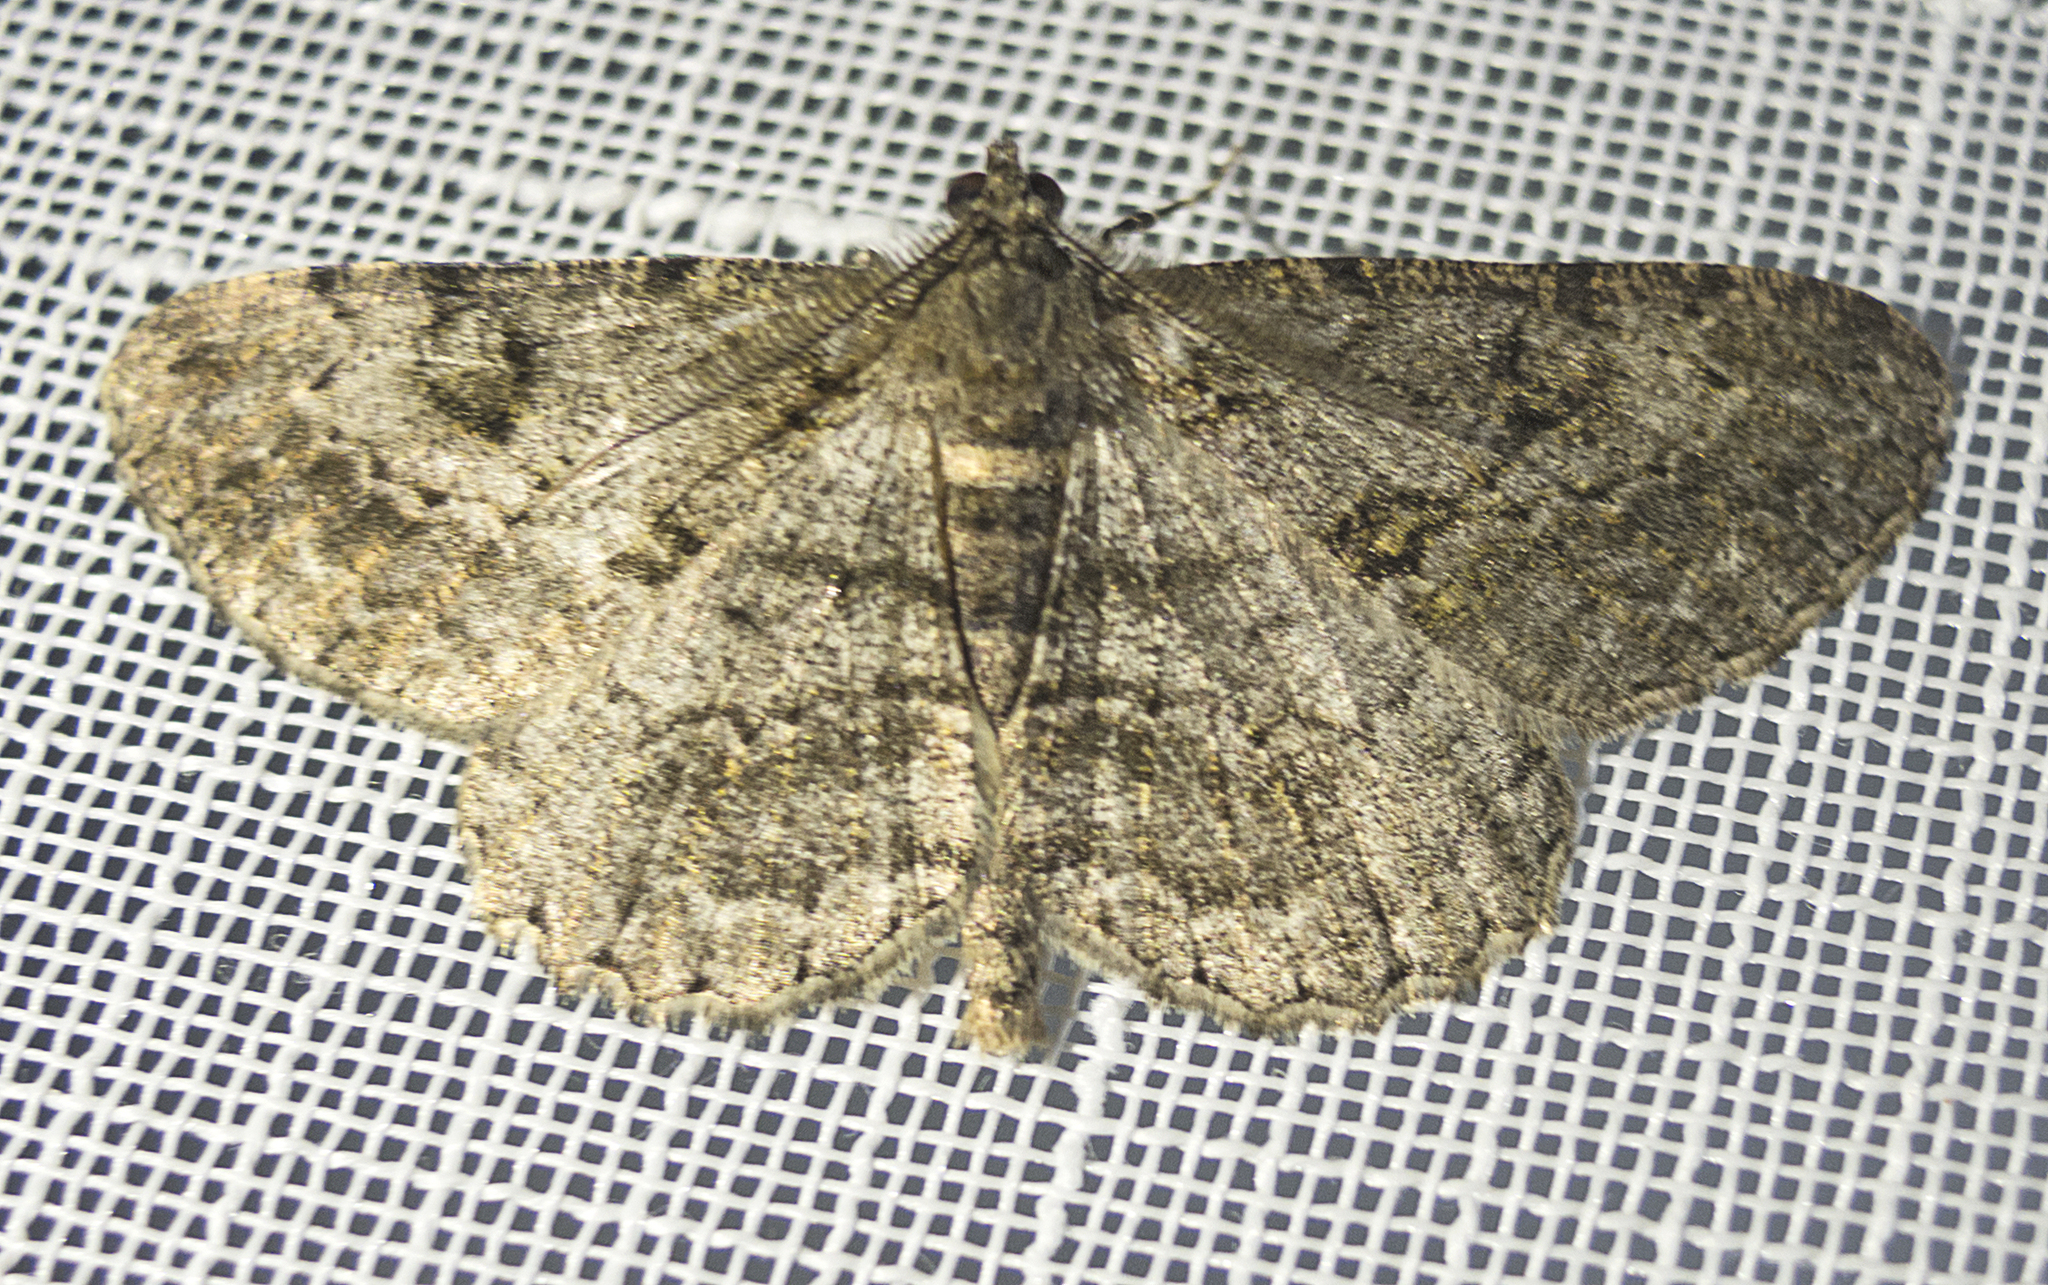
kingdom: Animalia
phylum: Arthropoda
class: Insecta
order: Lepidoptera
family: Geometridae
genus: Peribatodes
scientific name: Peribatodes rhomboidaria
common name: Willow beauty
